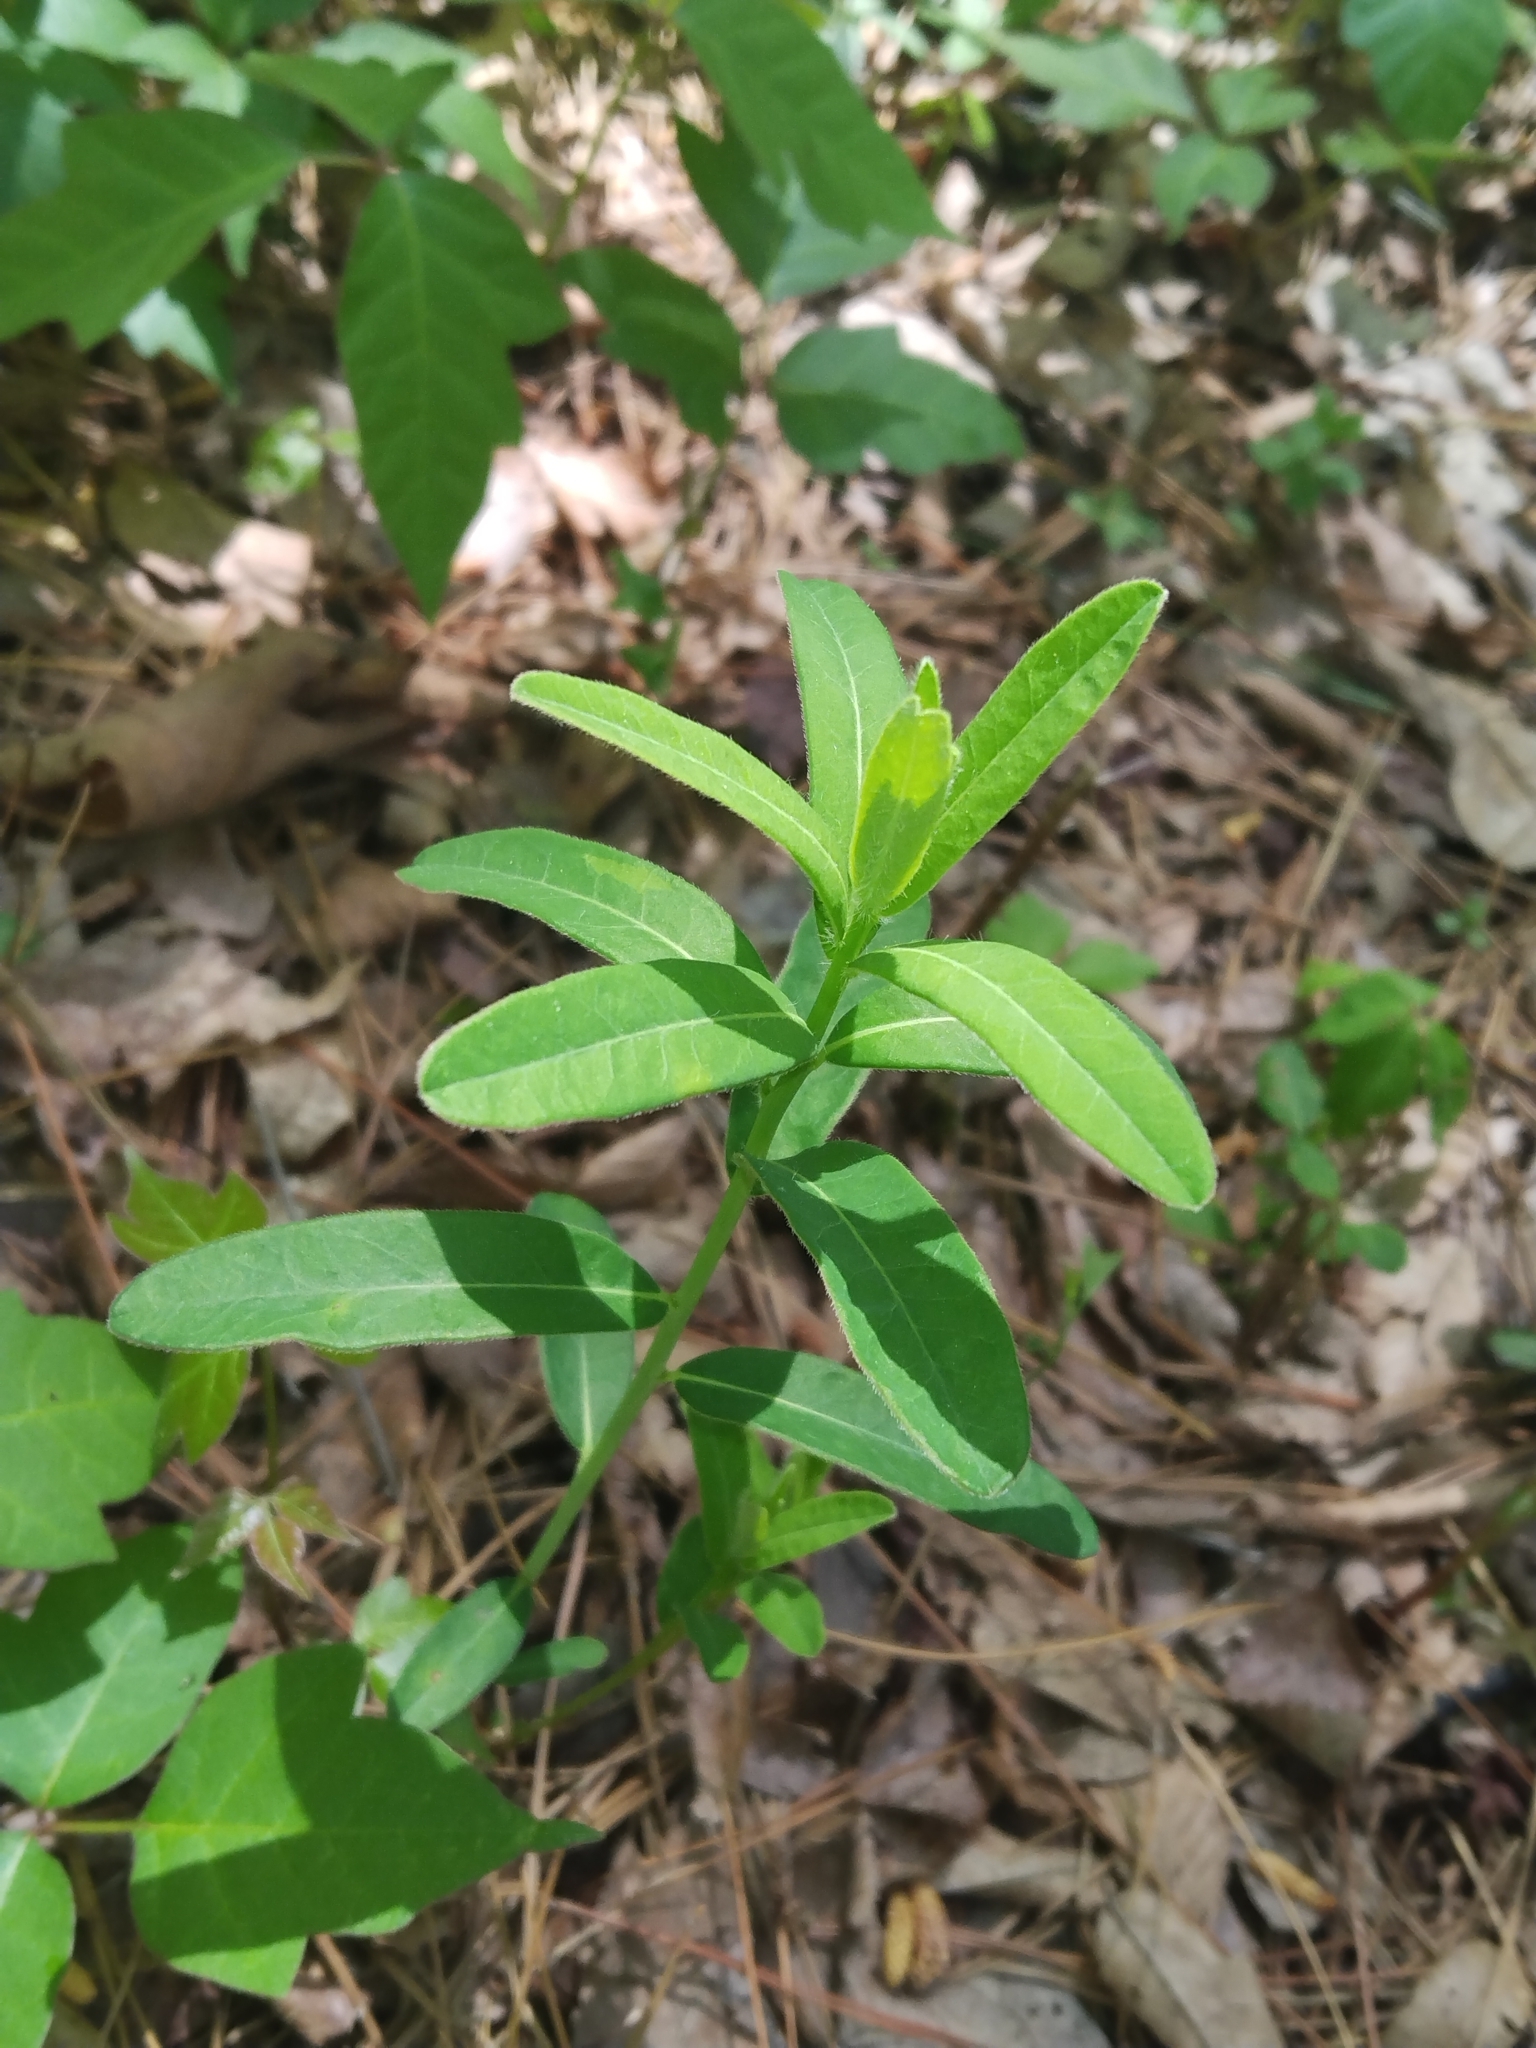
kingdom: Plantae
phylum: Tracheophyta
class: Magnoliopsida
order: Malpighiales
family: Euphorbiaceae
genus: Euphorbia
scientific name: Euphorbia corollata
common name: Flowering spurge
